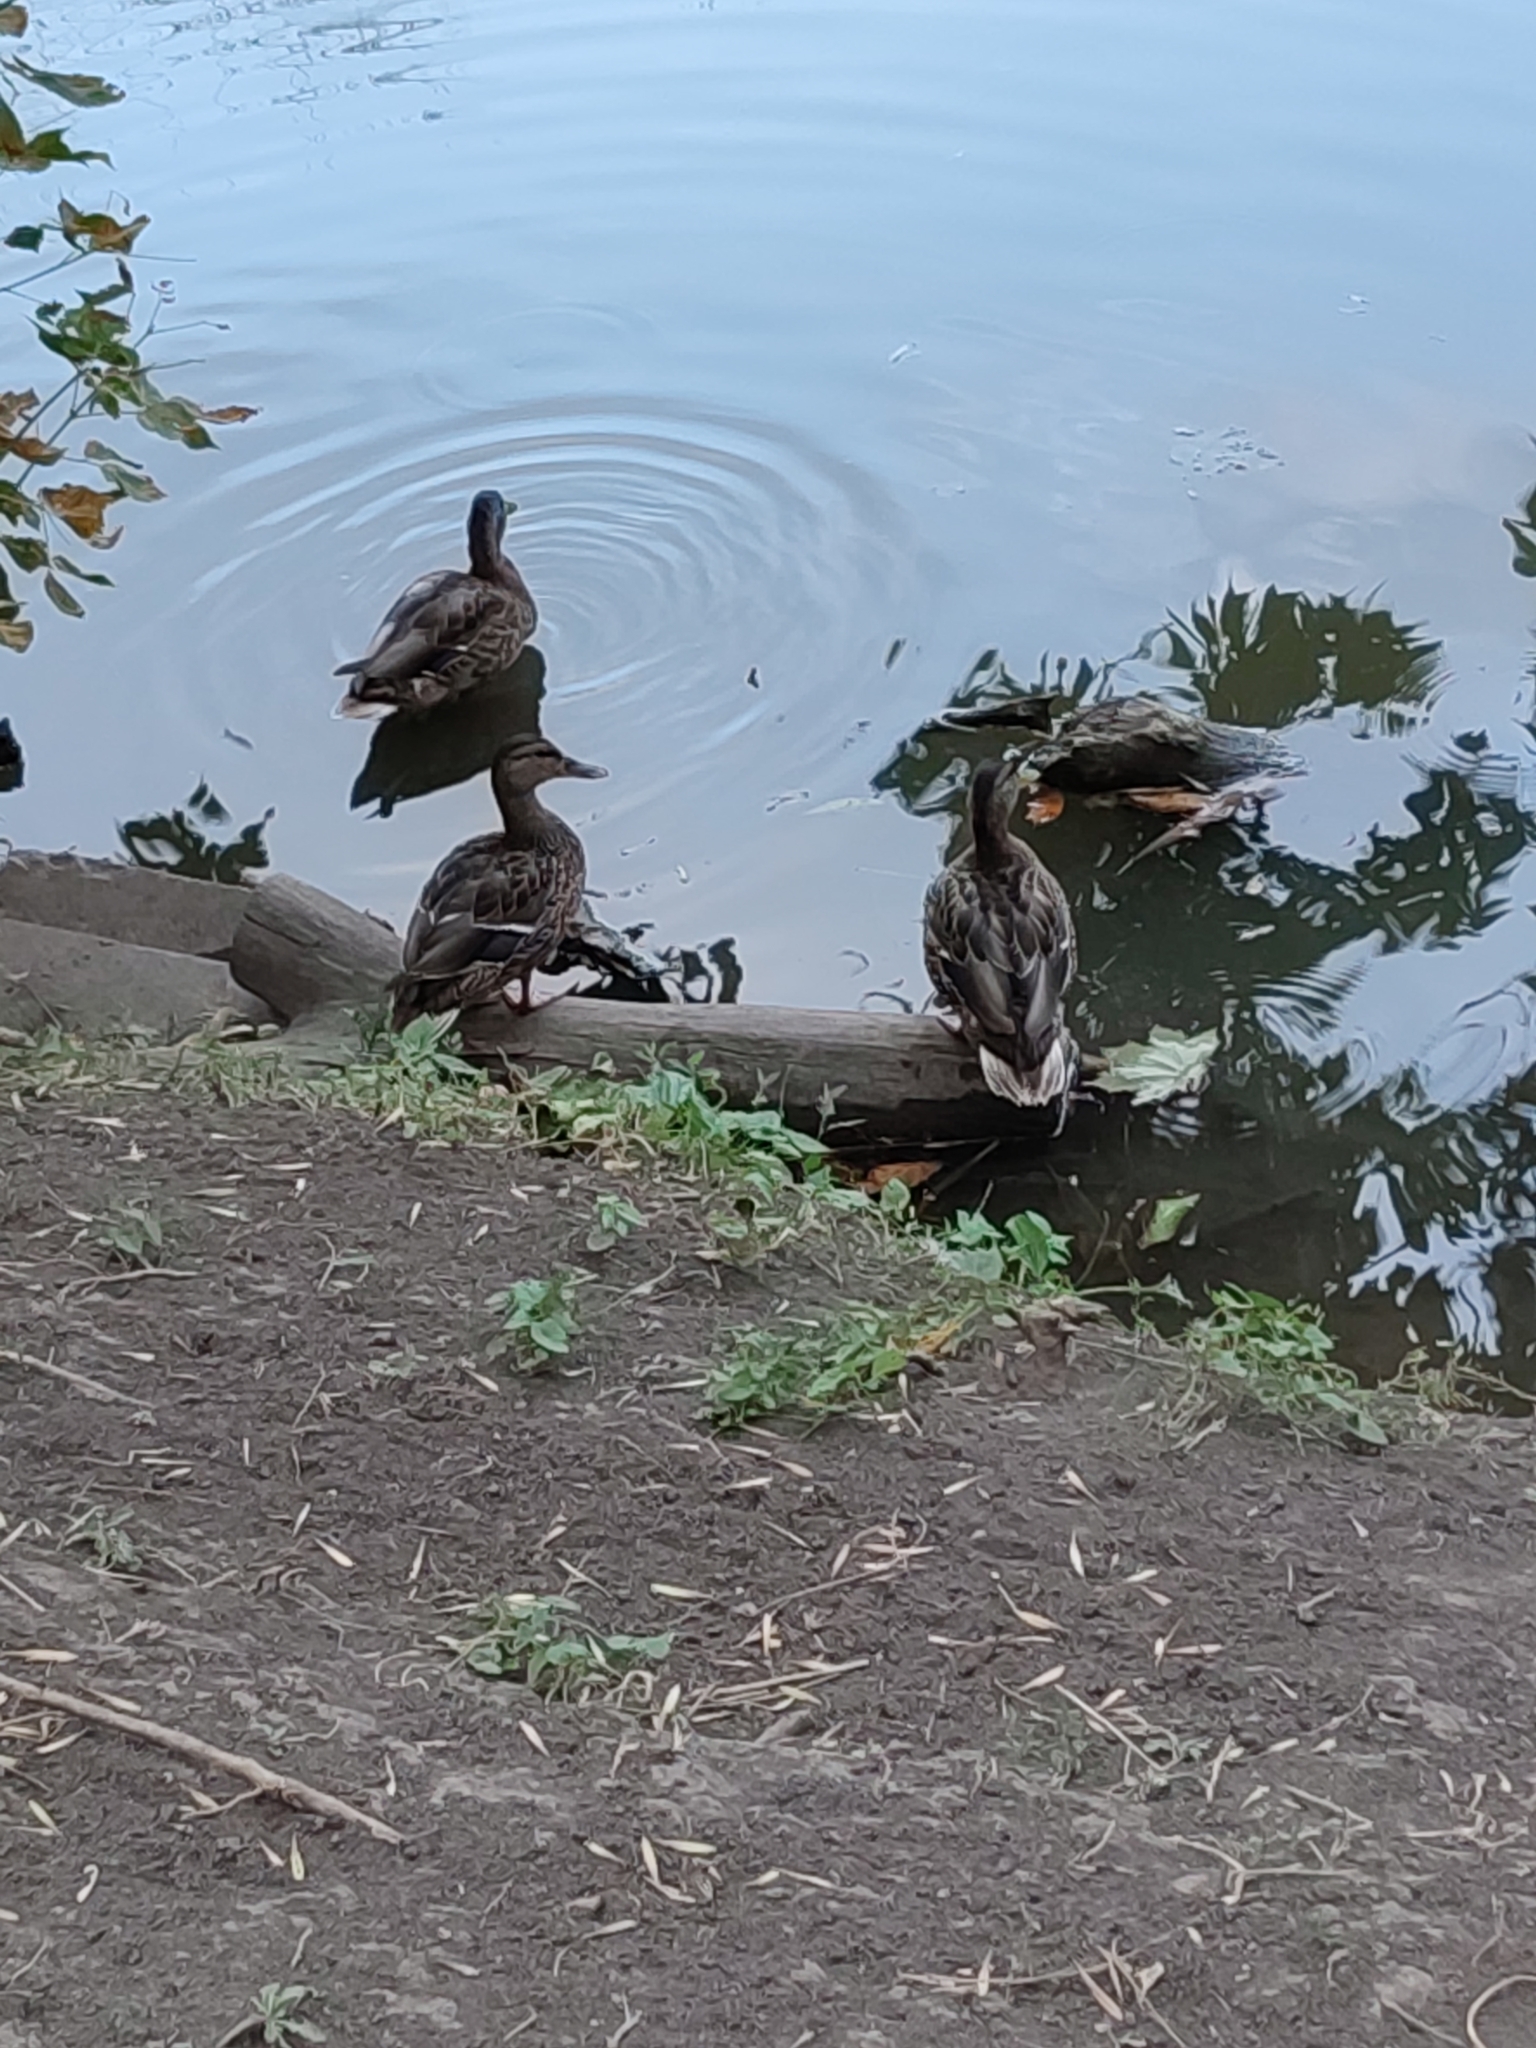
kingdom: Animalia
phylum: Chordata
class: Aves
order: Anseriformes
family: Anatidae
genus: Anas
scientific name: Anas platyrhynchos
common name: Mallard
